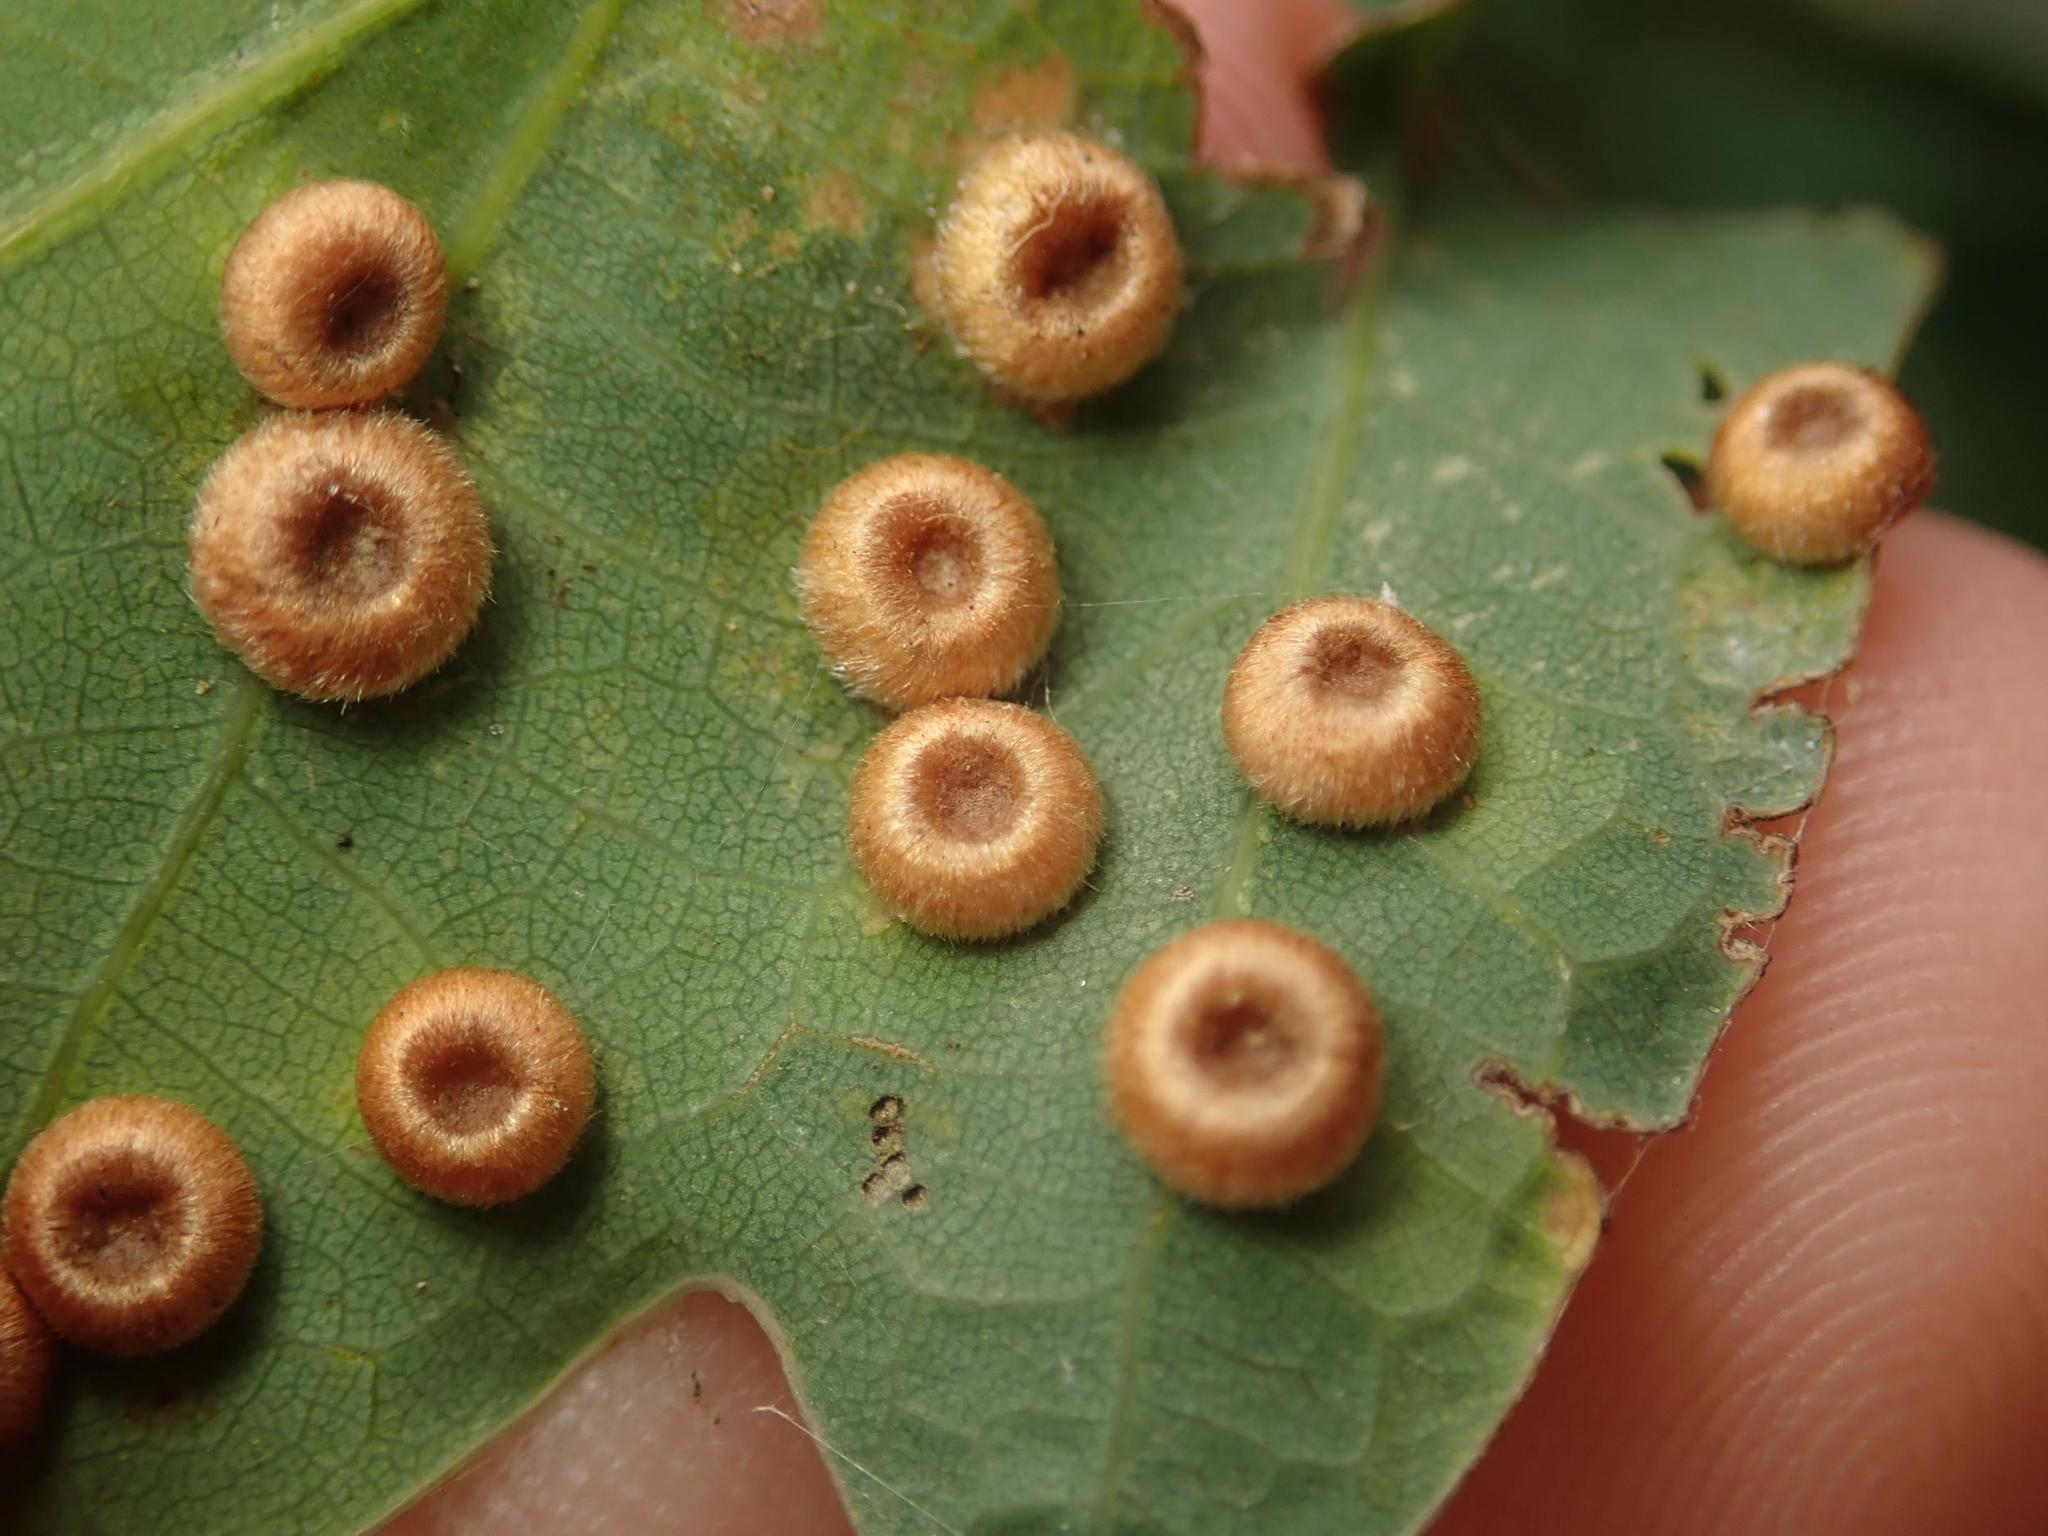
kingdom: Animalia
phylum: Arthropoda
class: Insecta
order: Hymenoptera
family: Cynipidae
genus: Neuroterus
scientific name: Neuroterus numismalis
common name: Silk-button spangle gall
